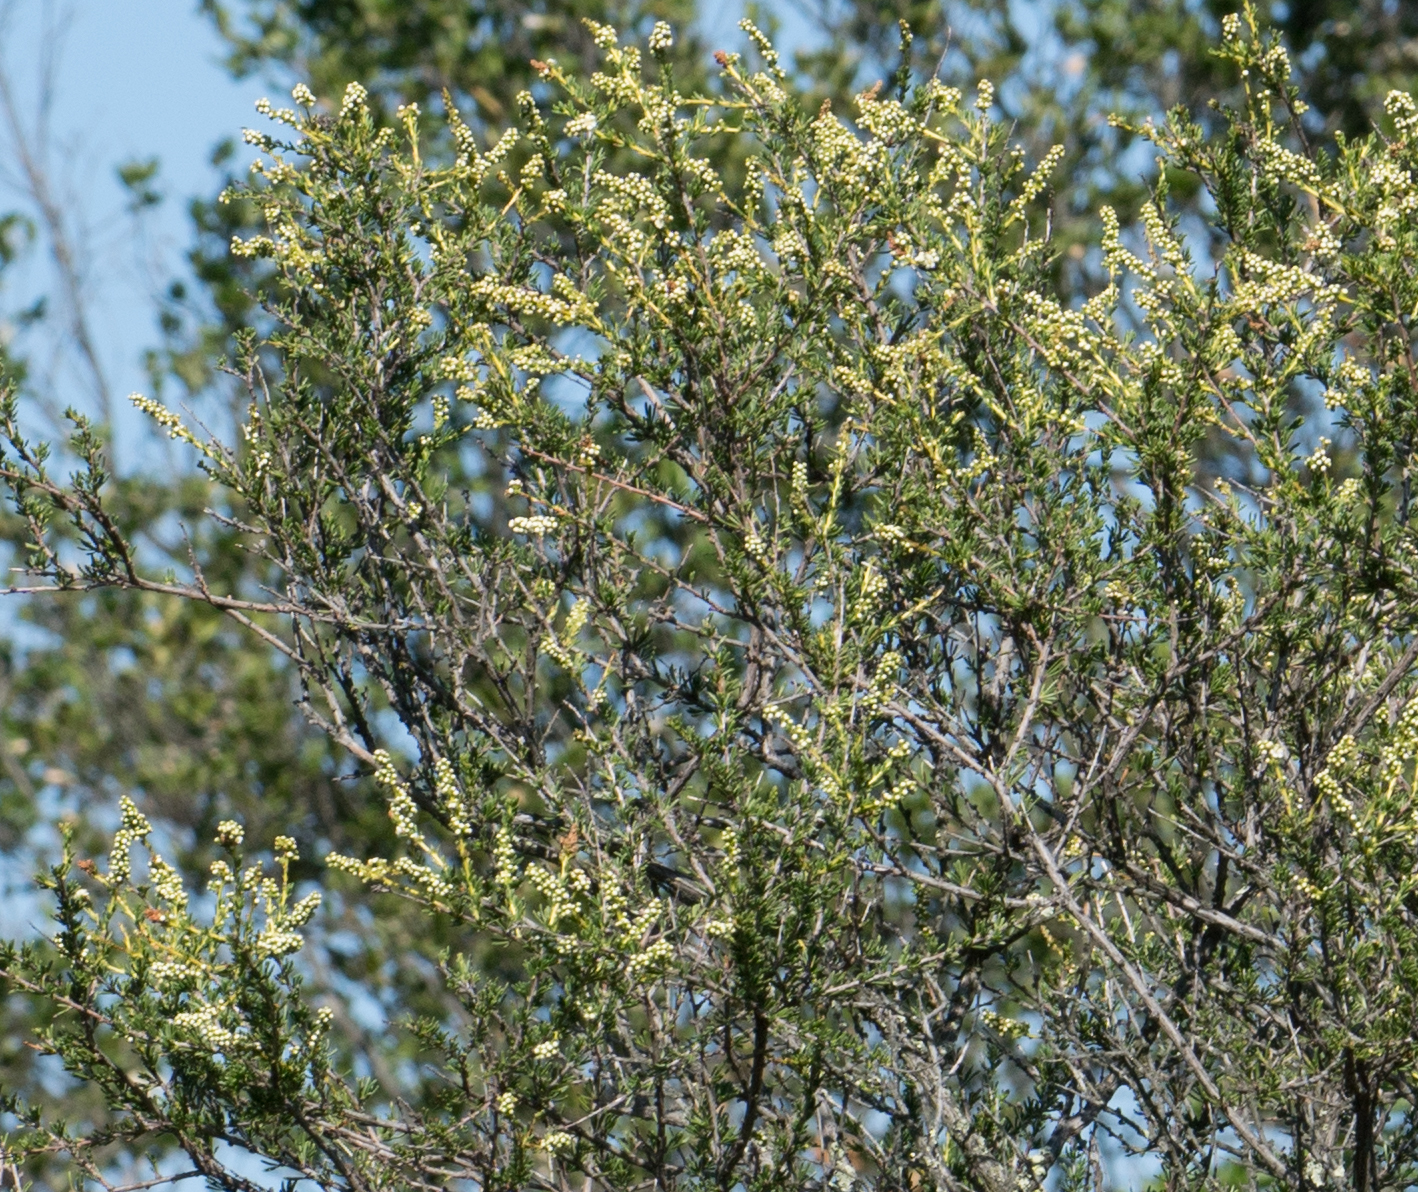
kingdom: Plantae
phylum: Tracheophyta
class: Magnoliopsida
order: Rosales
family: Rosaceae
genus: Adenostoma
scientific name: Adenostoma fasciculatum
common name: Chamise
